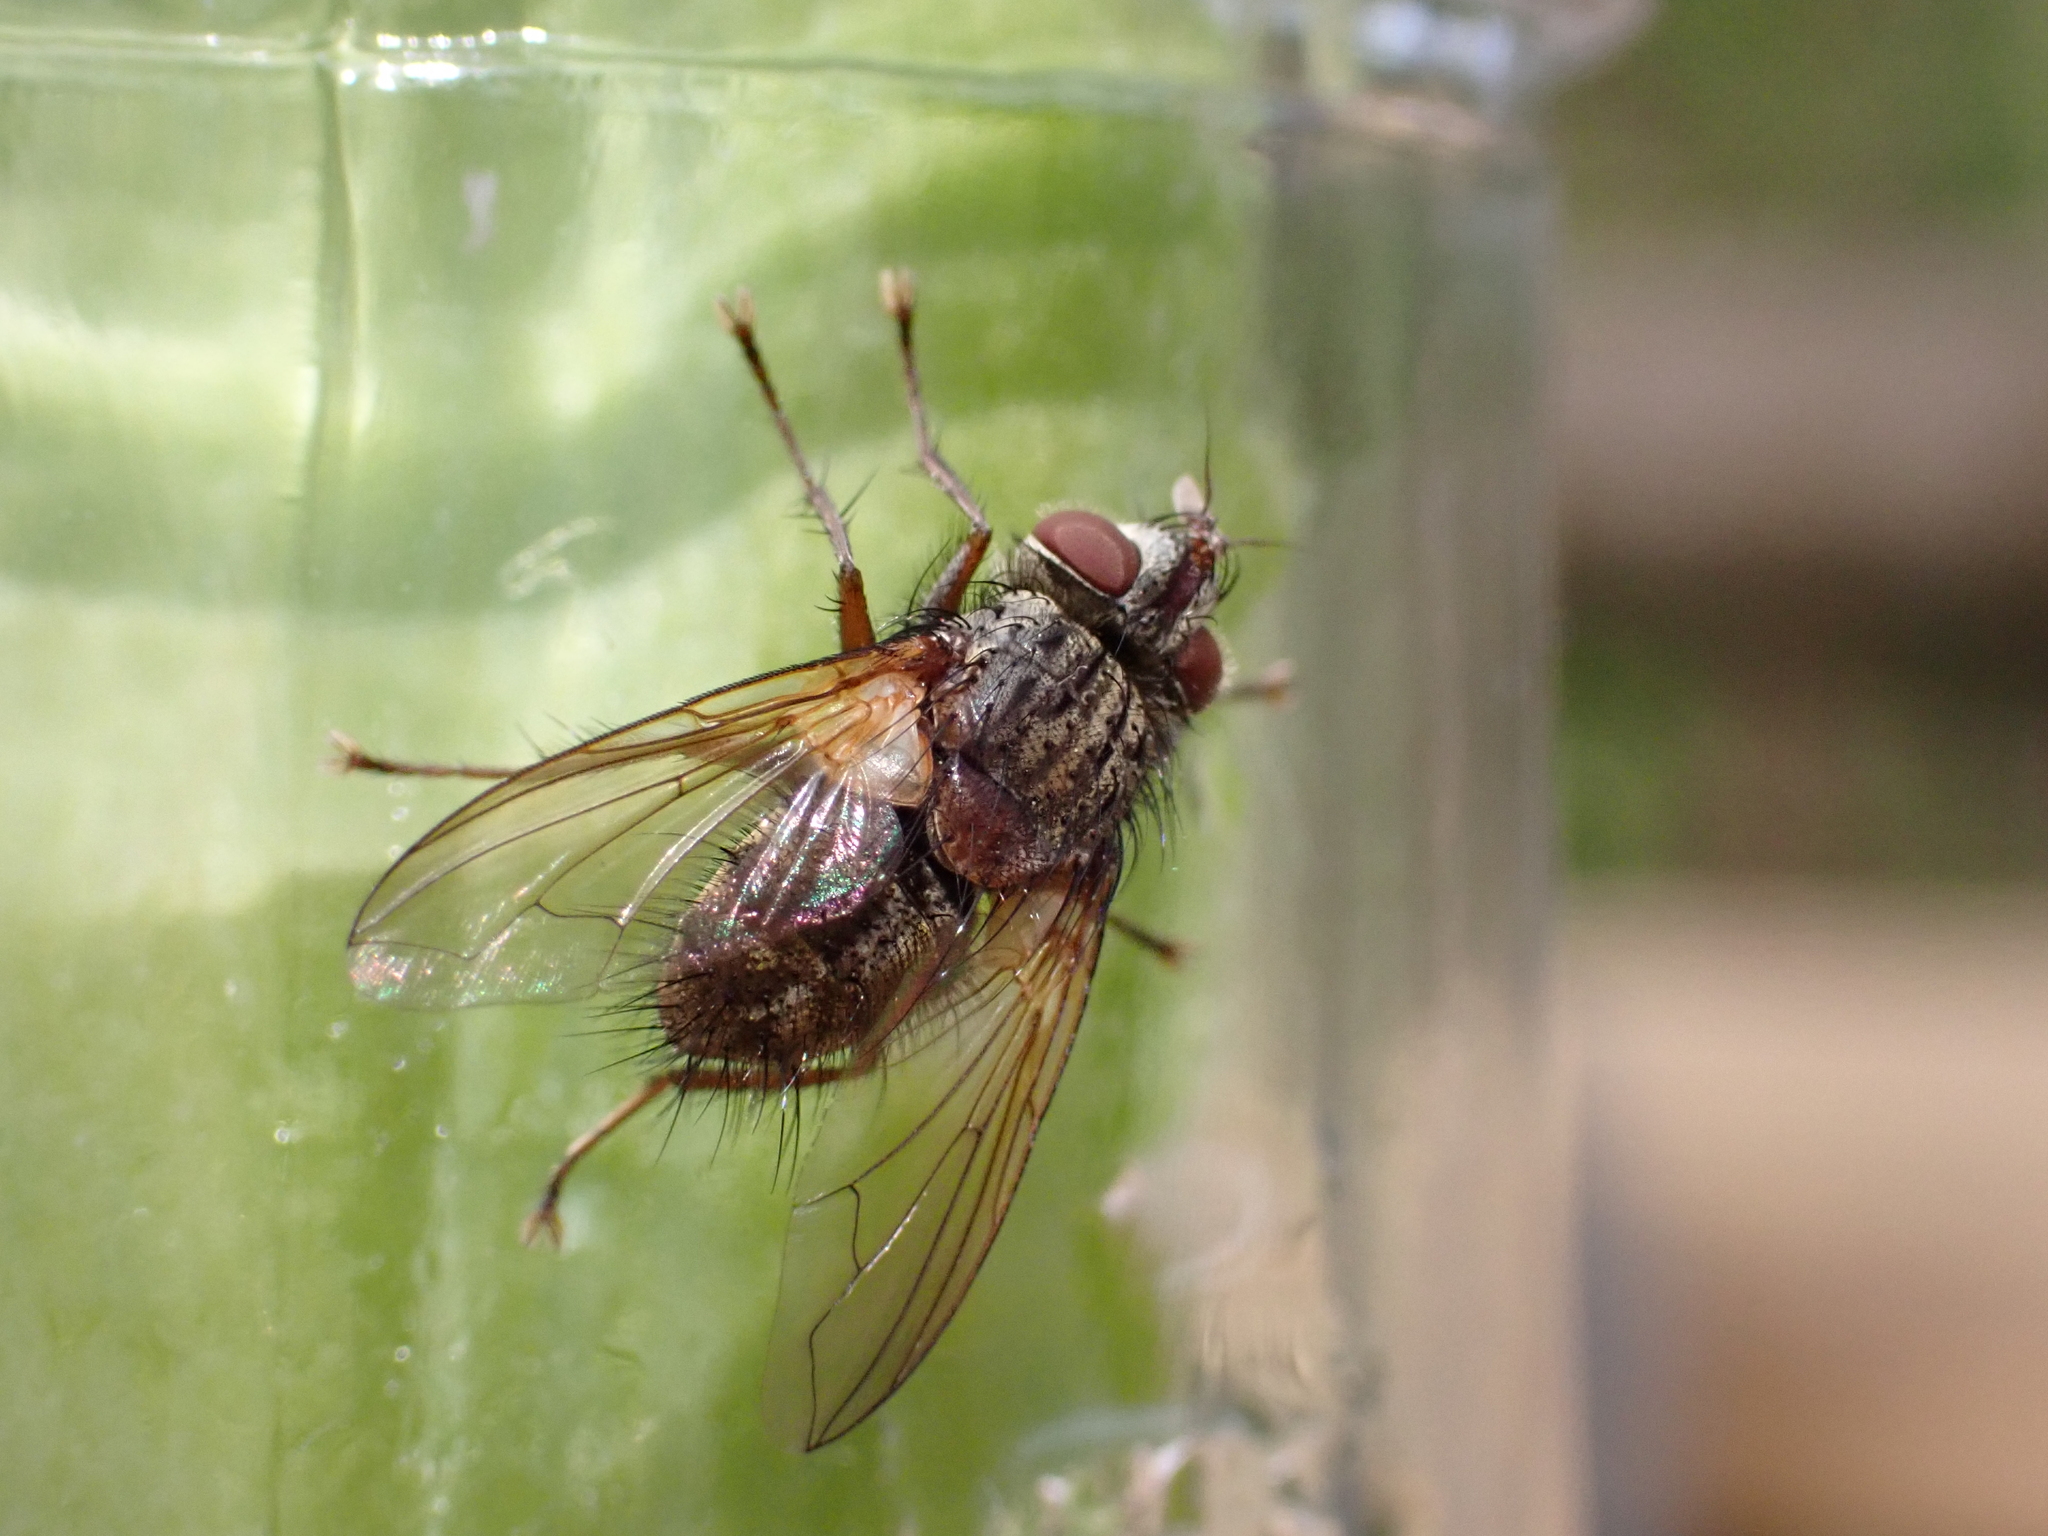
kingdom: Animalia
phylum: Arthropoda
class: Insecta
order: Diptera
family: Tachinidae
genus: Phryno
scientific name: Phryno vetula
